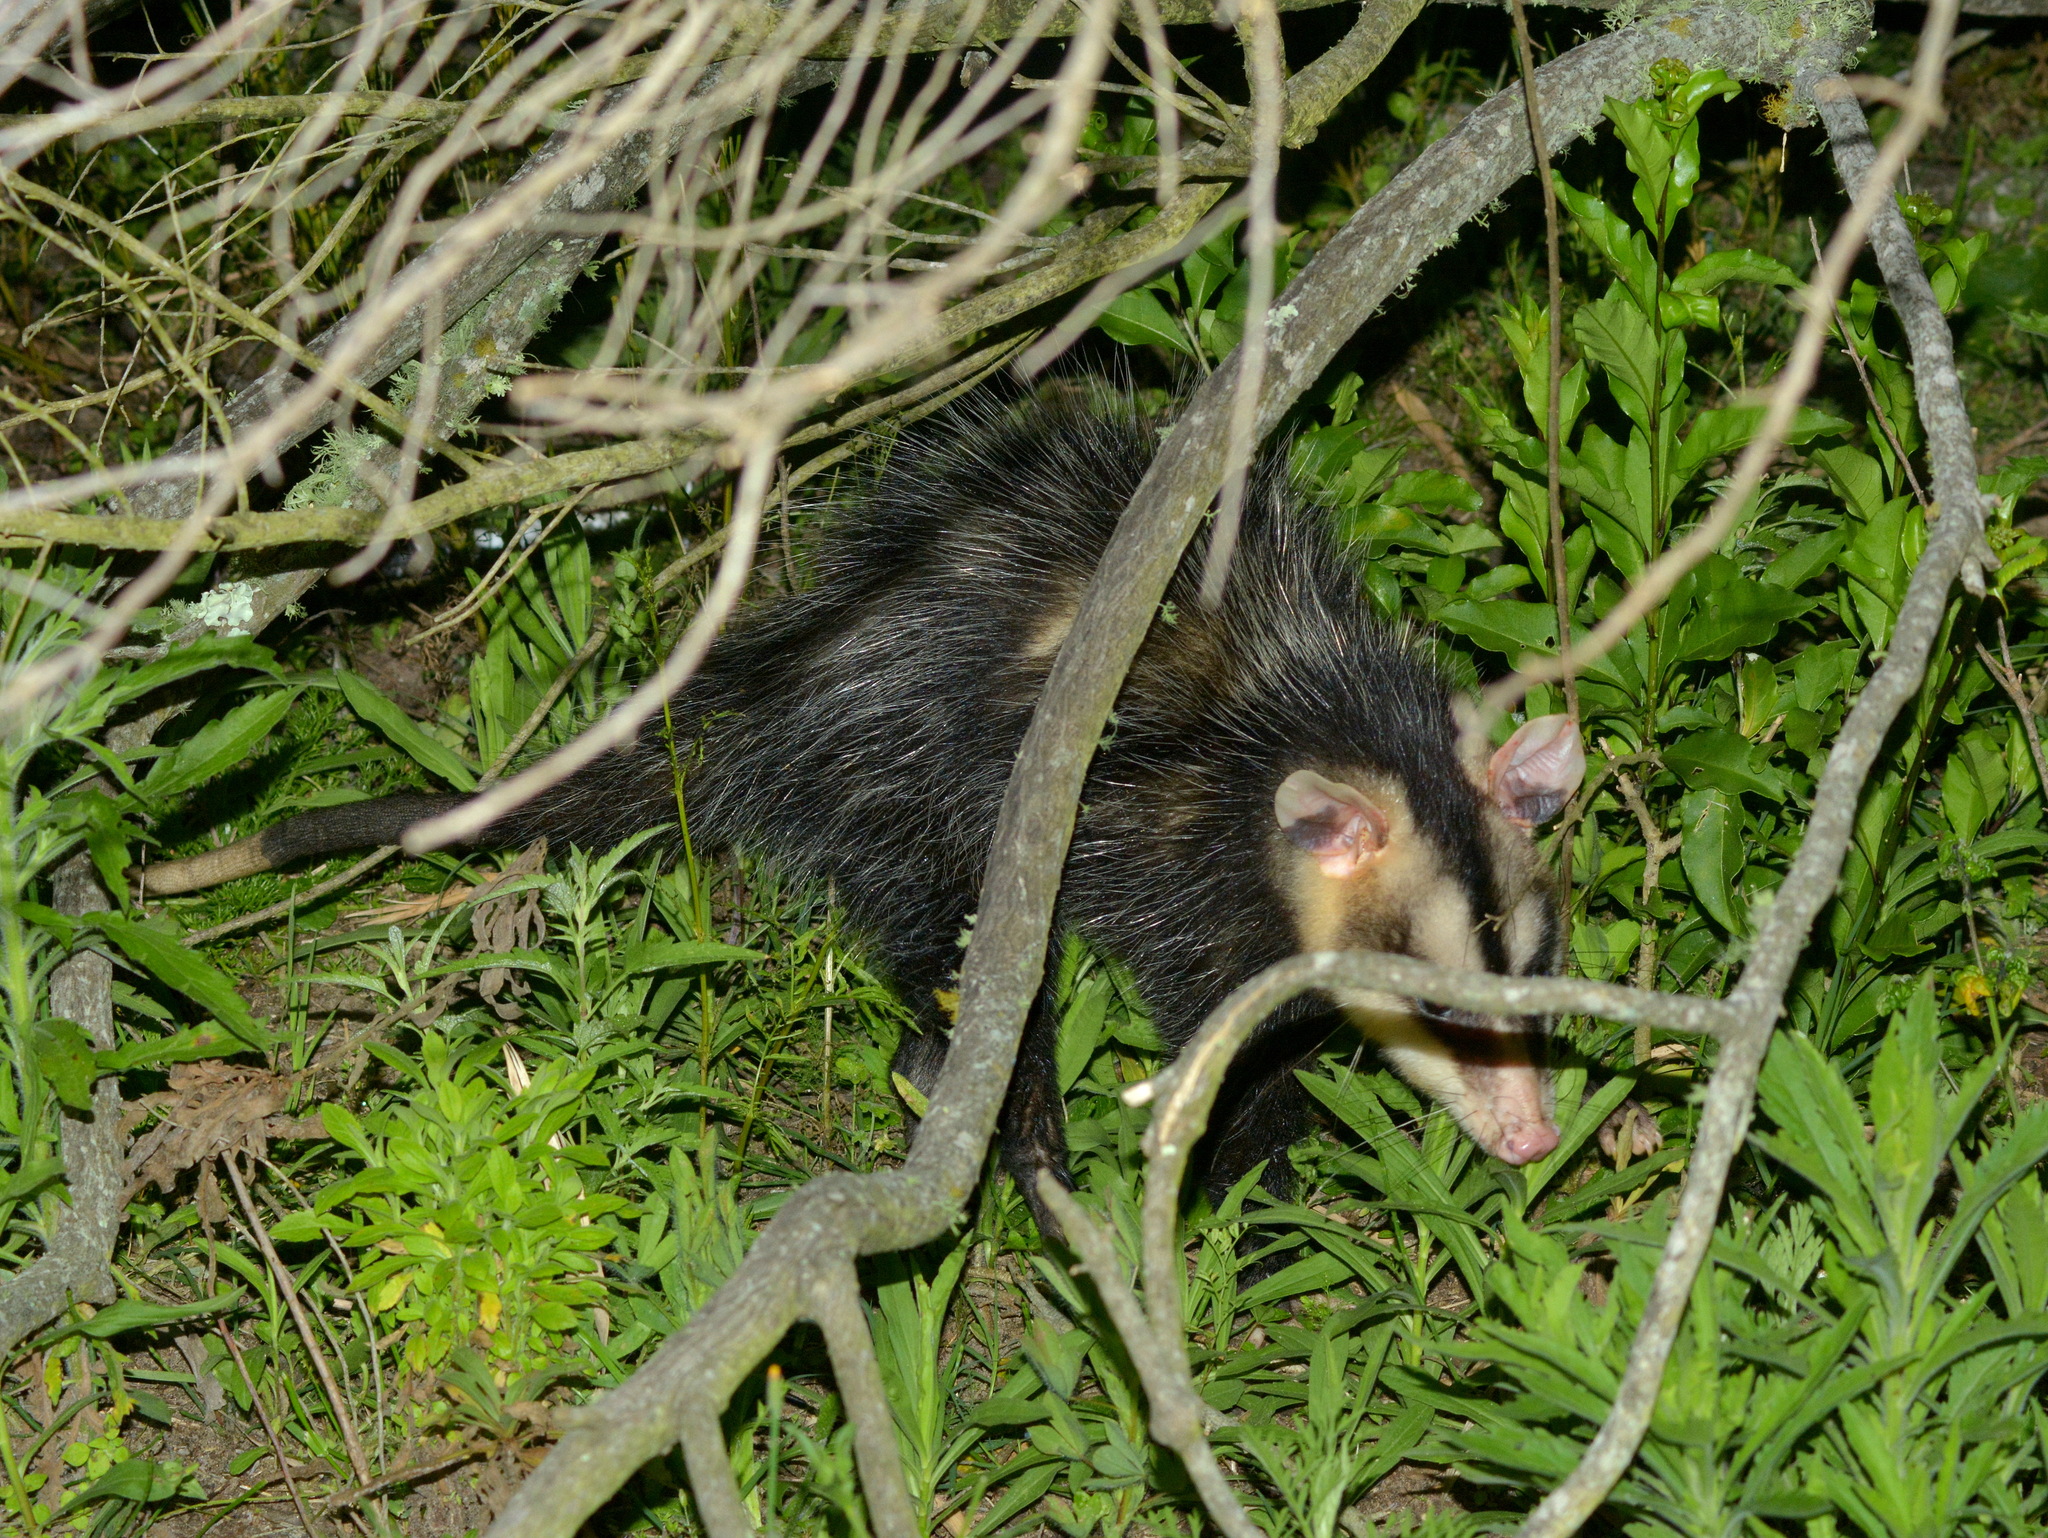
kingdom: Animalia
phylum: Chordata
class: Mammalia
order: Didelphimorphia
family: Didelphidae
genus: Didelphis
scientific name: Didelphis albiventris
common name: White-eared opossum
